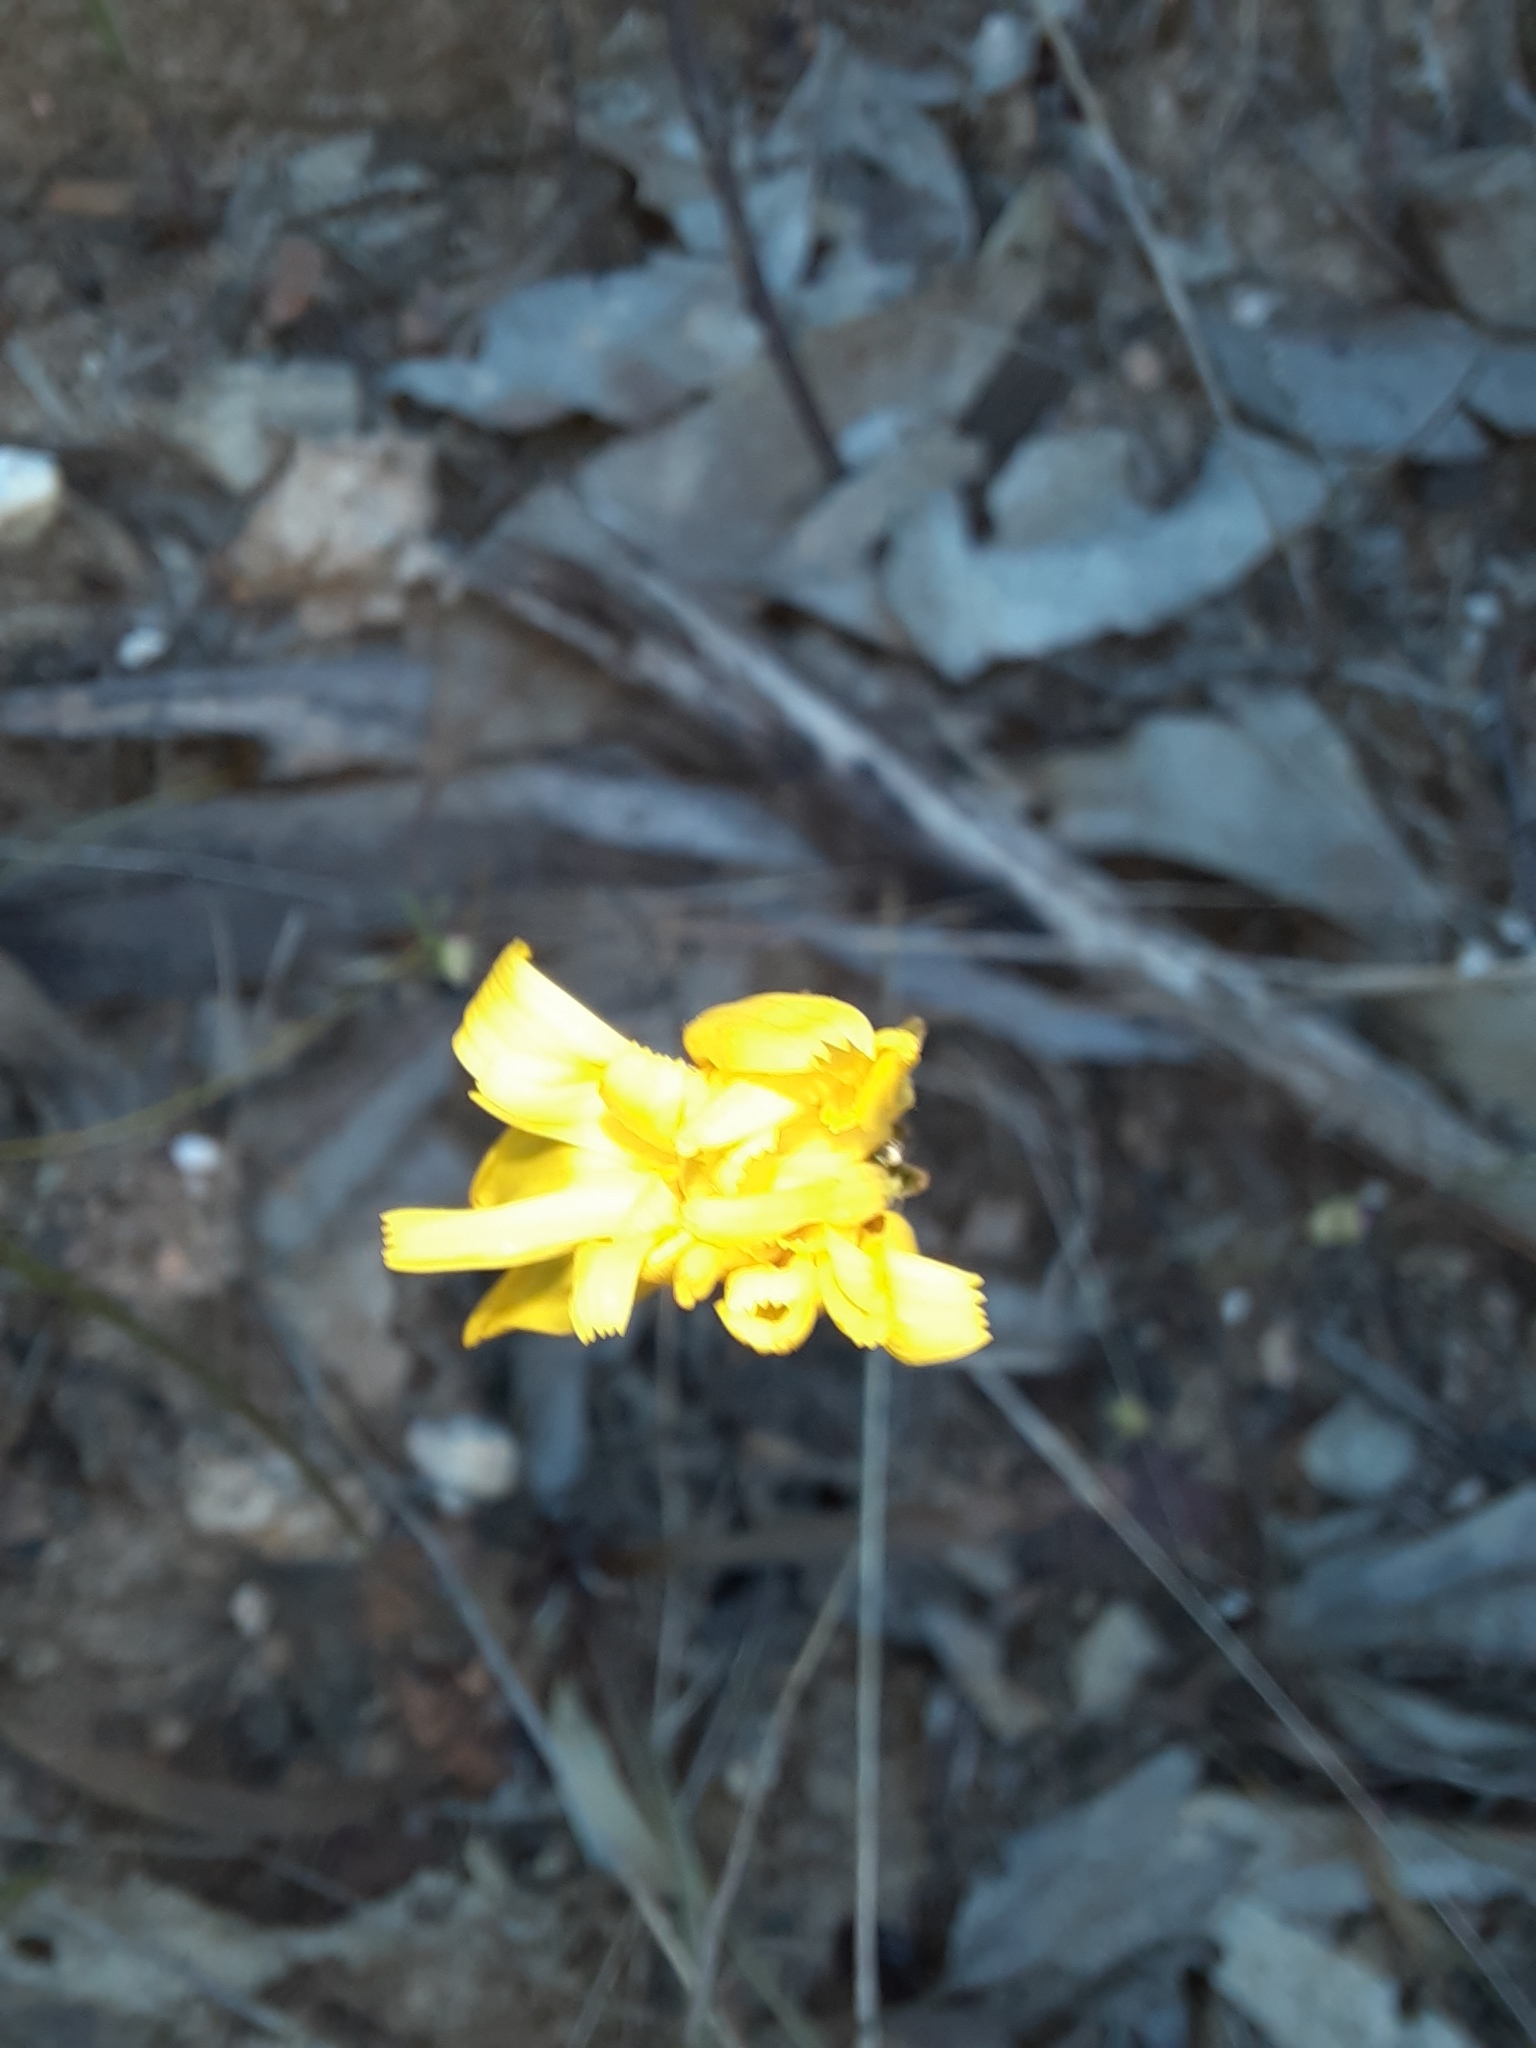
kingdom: Plantae
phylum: Tracheophyta
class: Magnoliopsida
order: Asterales
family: Asteraceae
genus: Microseris
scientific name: Microseris lanceolata
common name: Yam daisy
